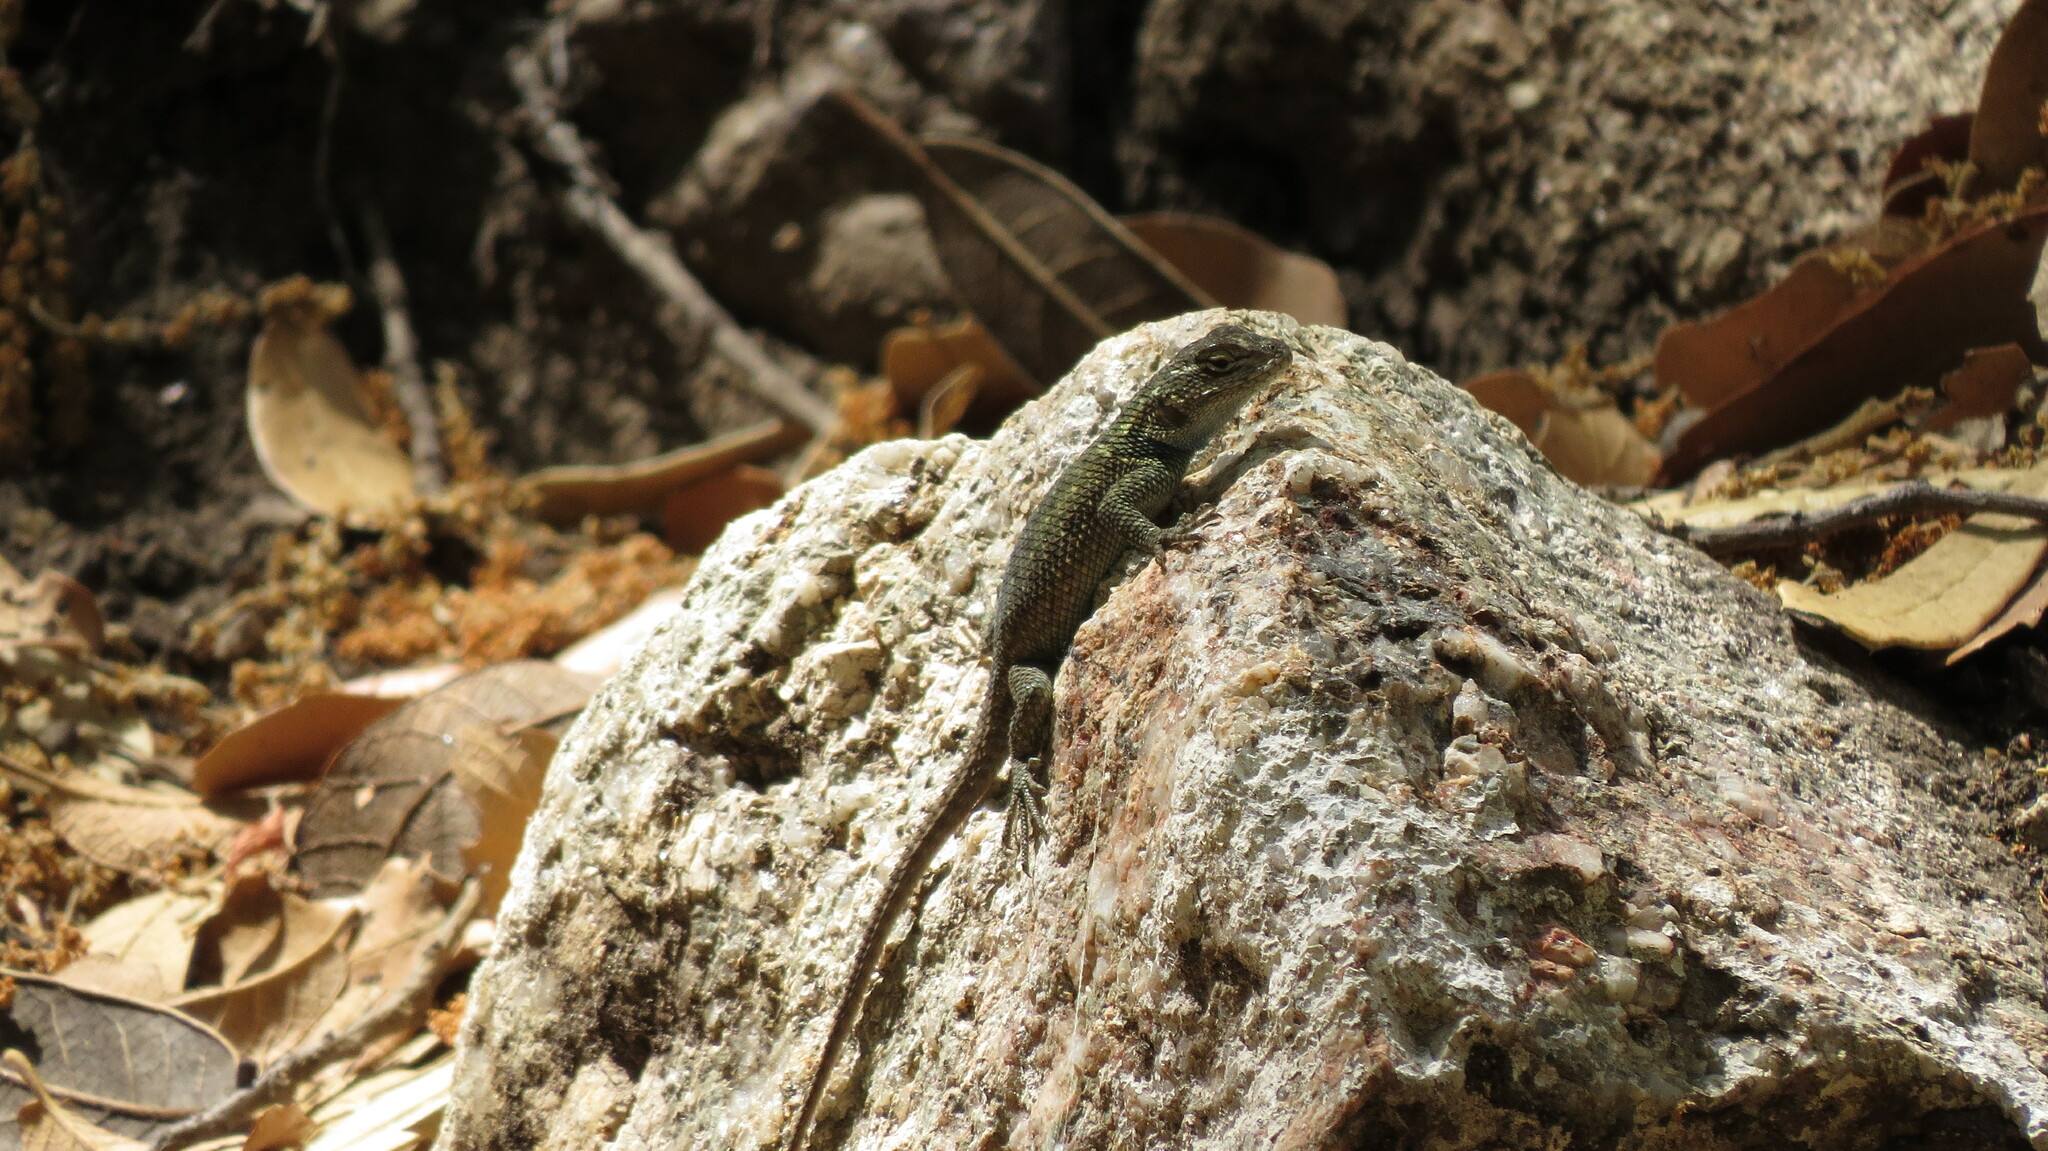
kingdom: Animalia
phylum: Chordata
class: Squamata
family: Phrynosomatidae
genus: Sceloporus
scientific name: Sceloporus jarrovii
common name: Yarrow's spiny lizard
